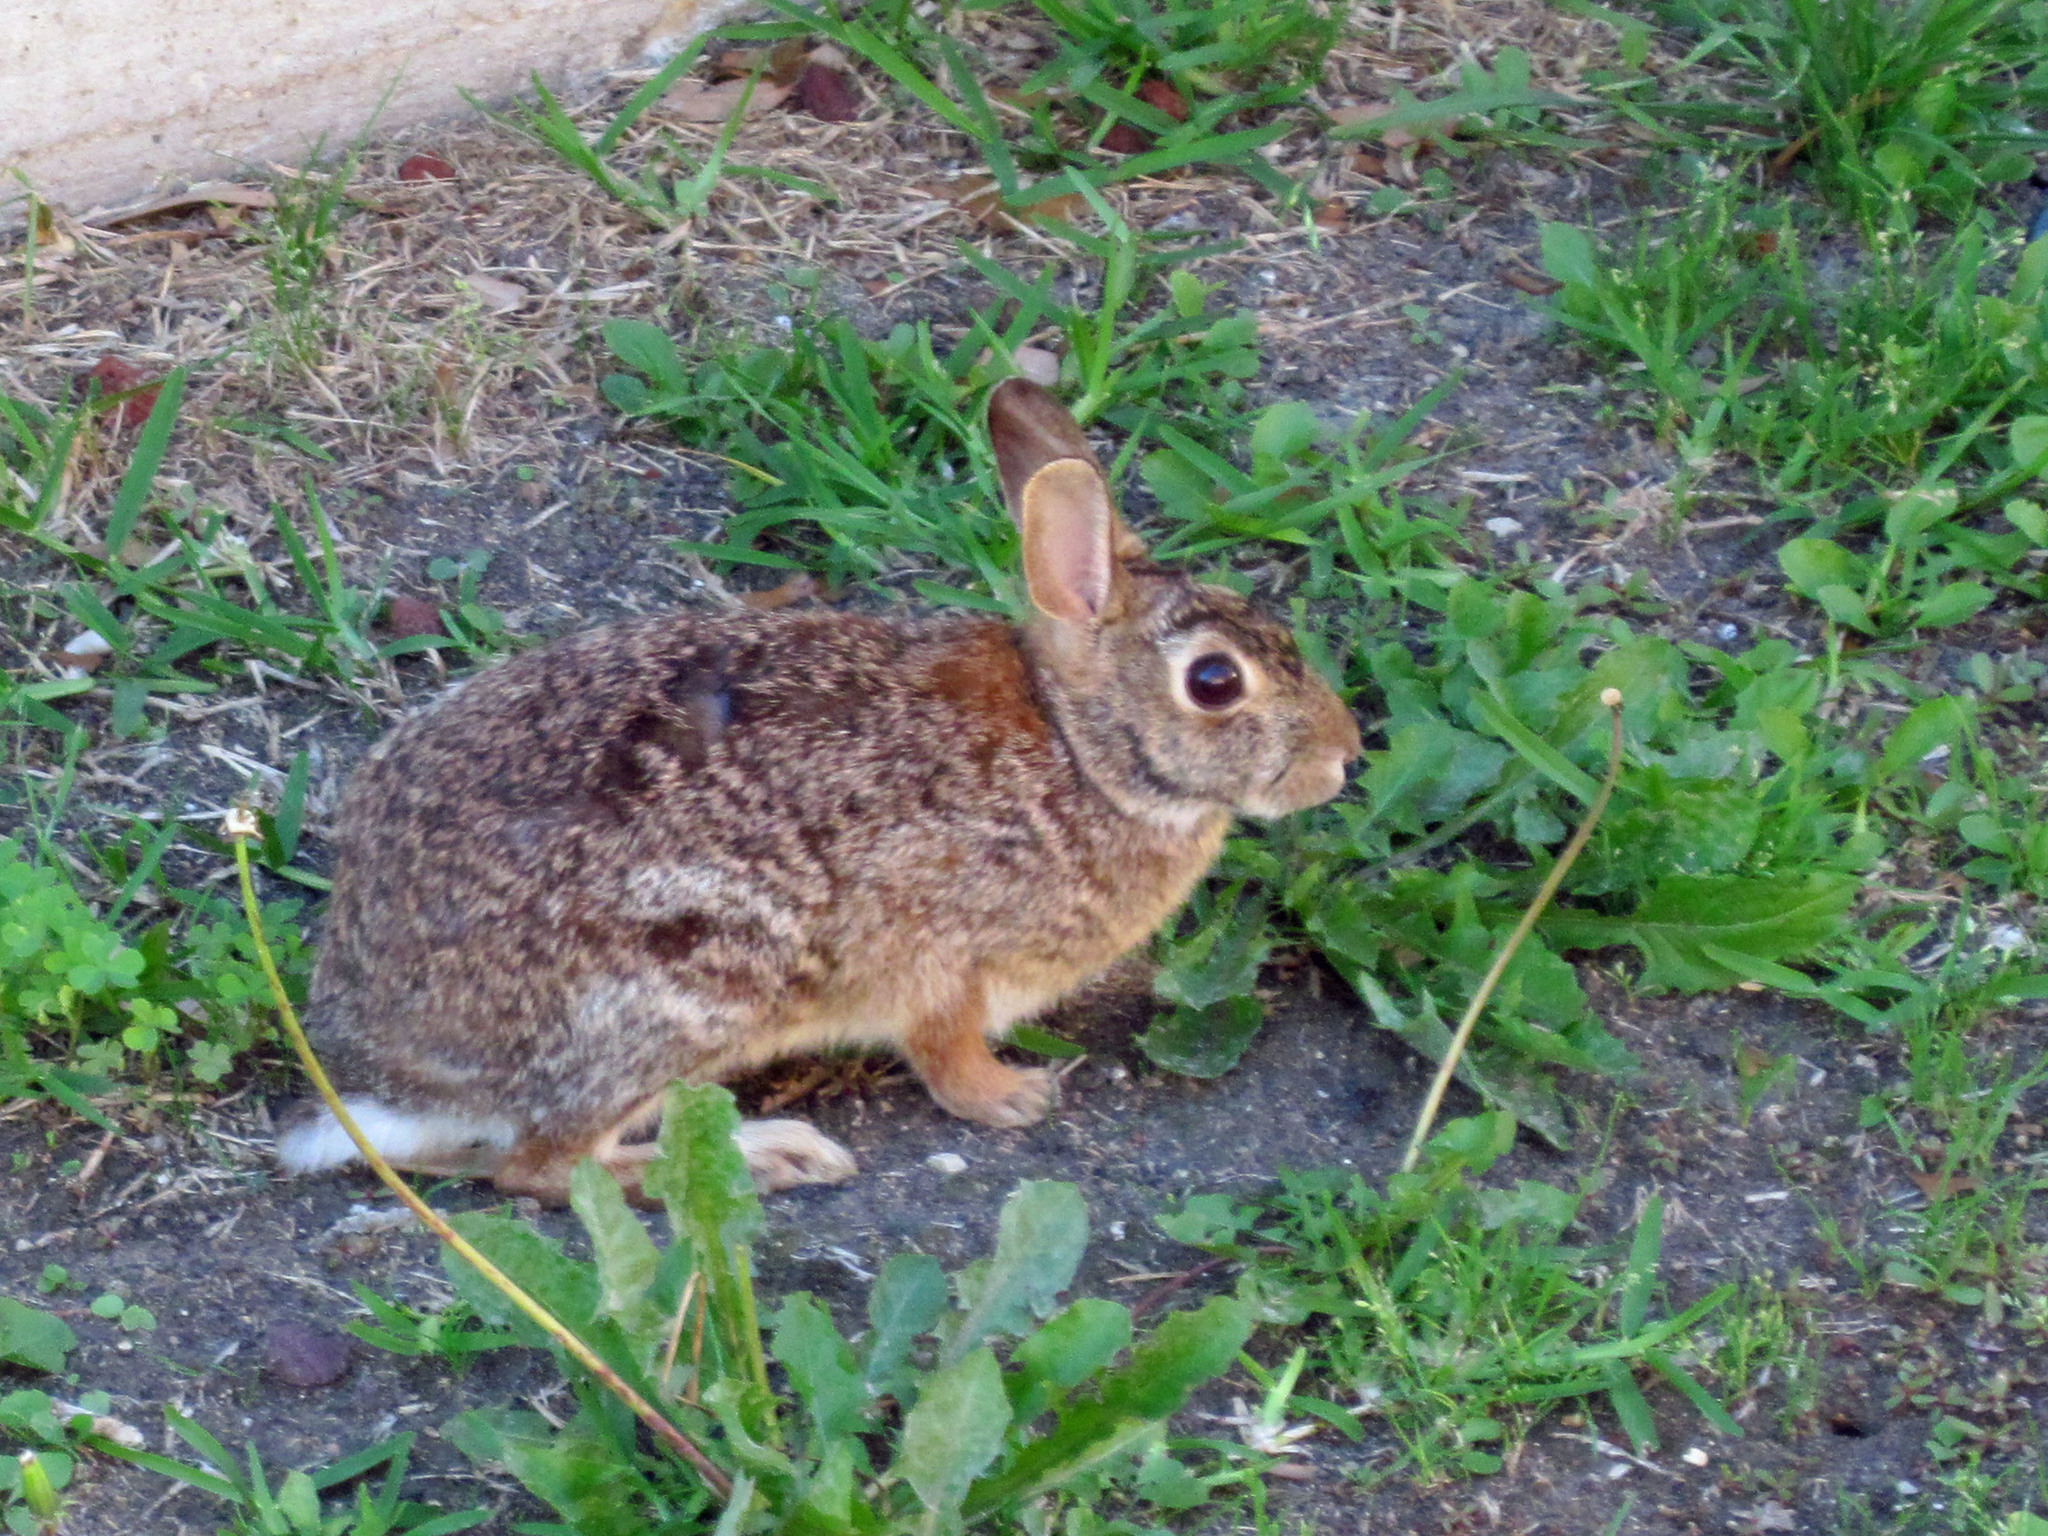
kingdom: Animalia
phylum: Chordata
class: Mammalia
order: Lagomorpha
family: Leporidae
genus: Sylvilagus
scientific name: Sylvilagus floridanus
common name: Eastern cottontail
